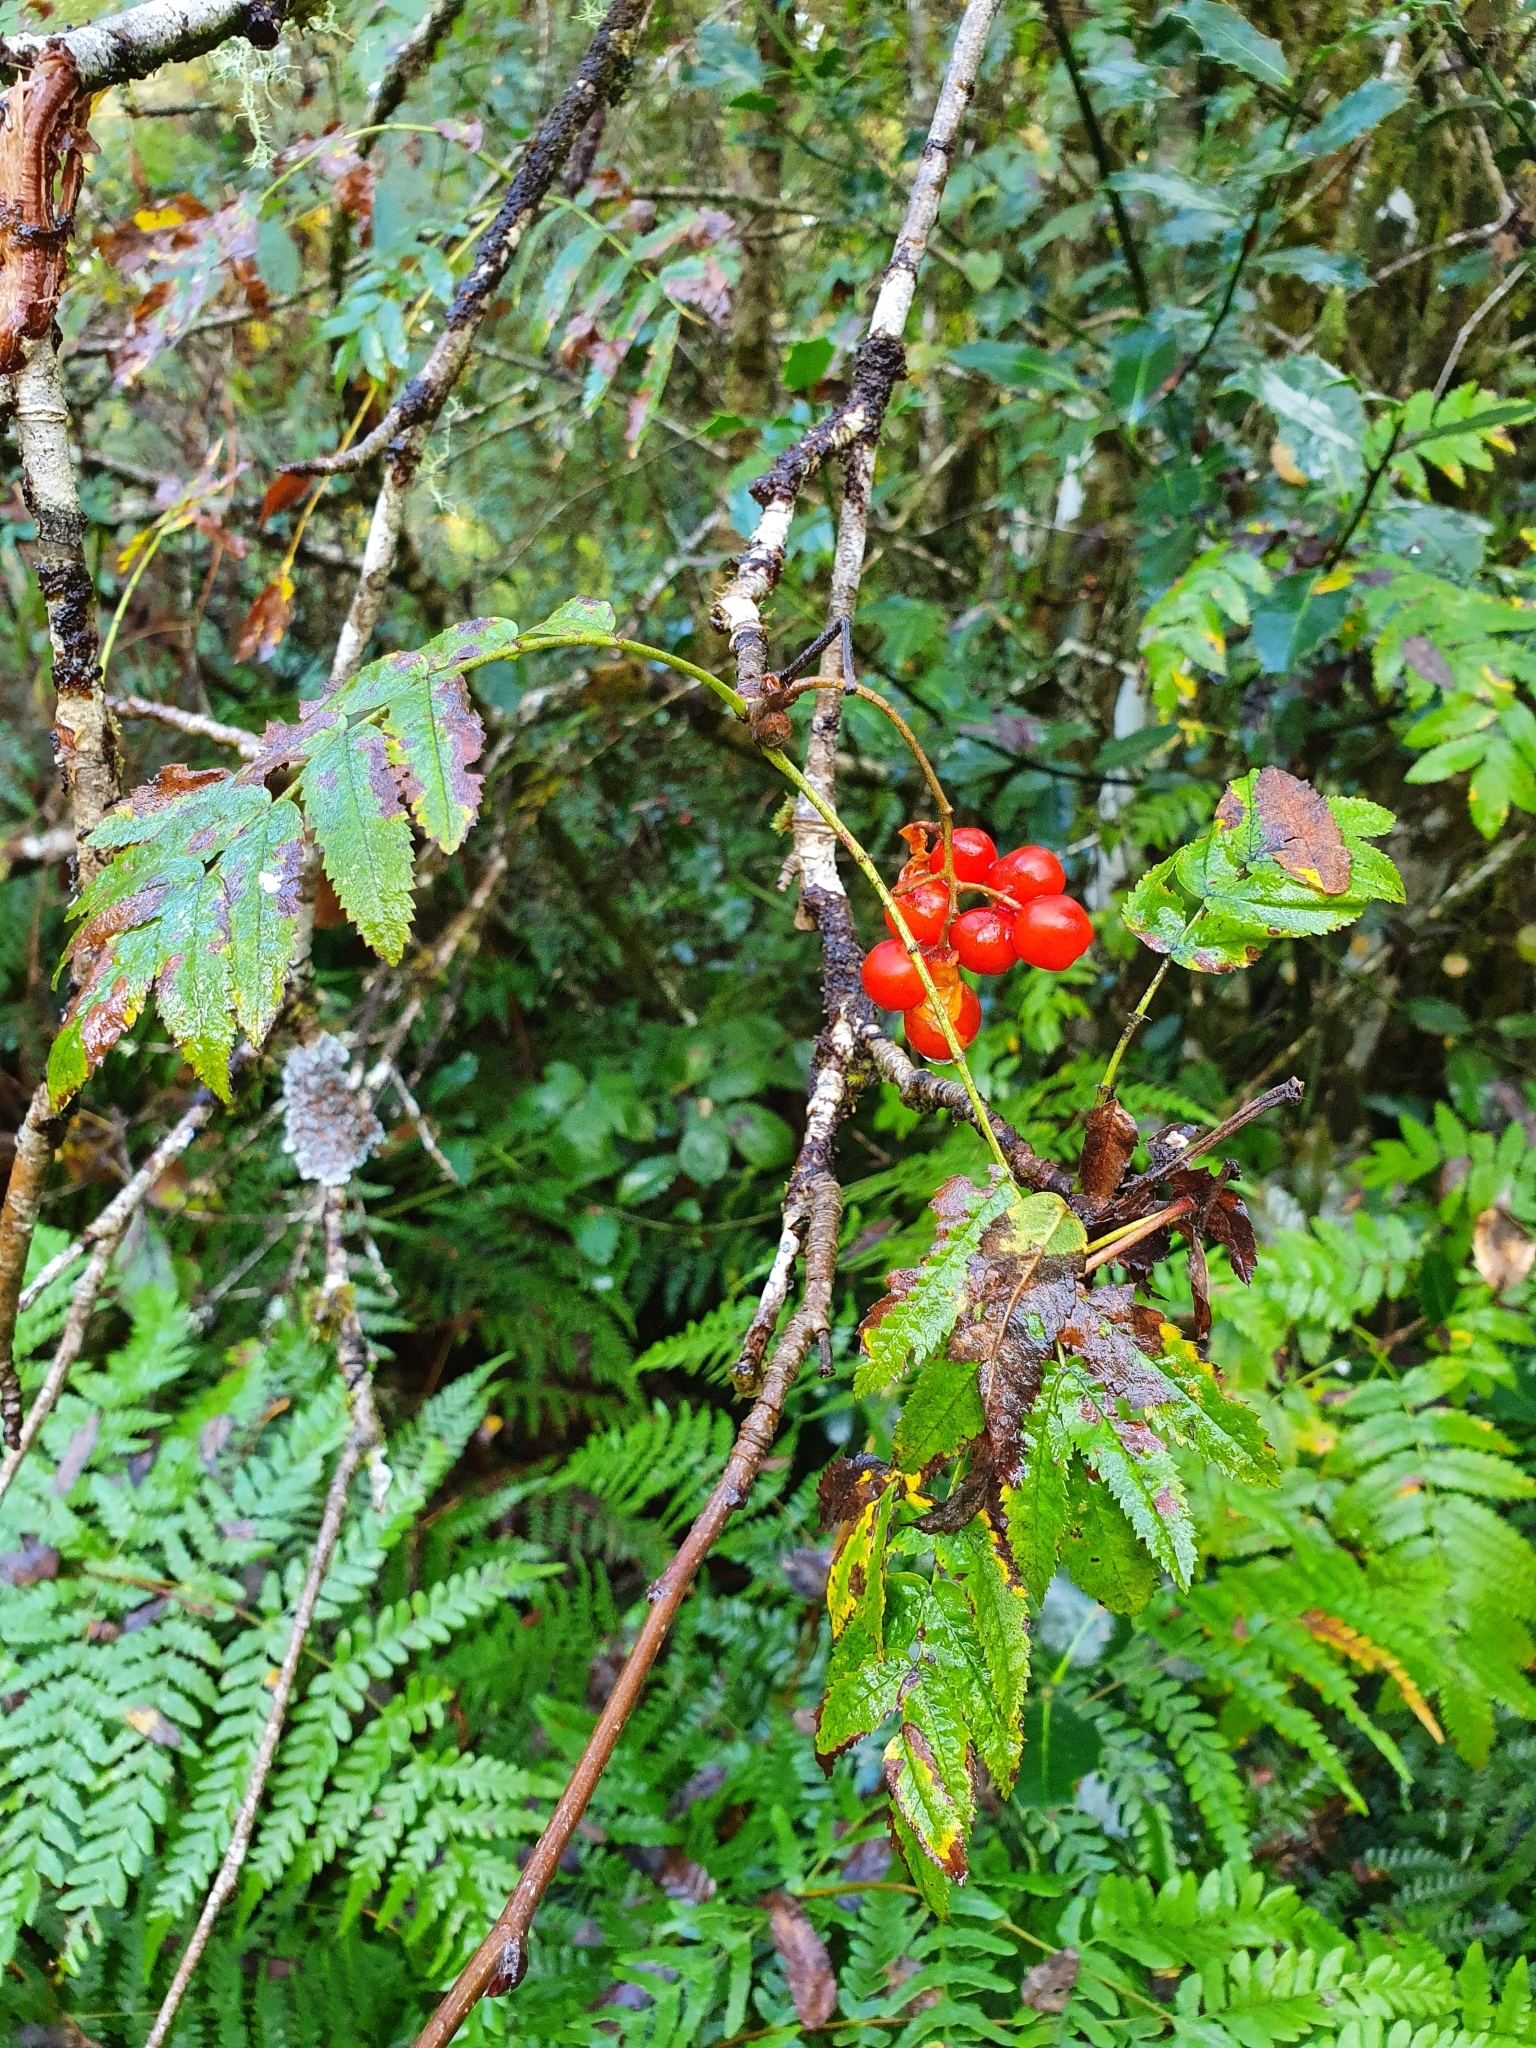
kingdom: Plantae
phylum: Tracheophyta
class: Magnoliopsida
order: Rosales
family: Rosaceae
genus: Sorbus
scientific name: Sorbus aucuparia
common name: Rowan
